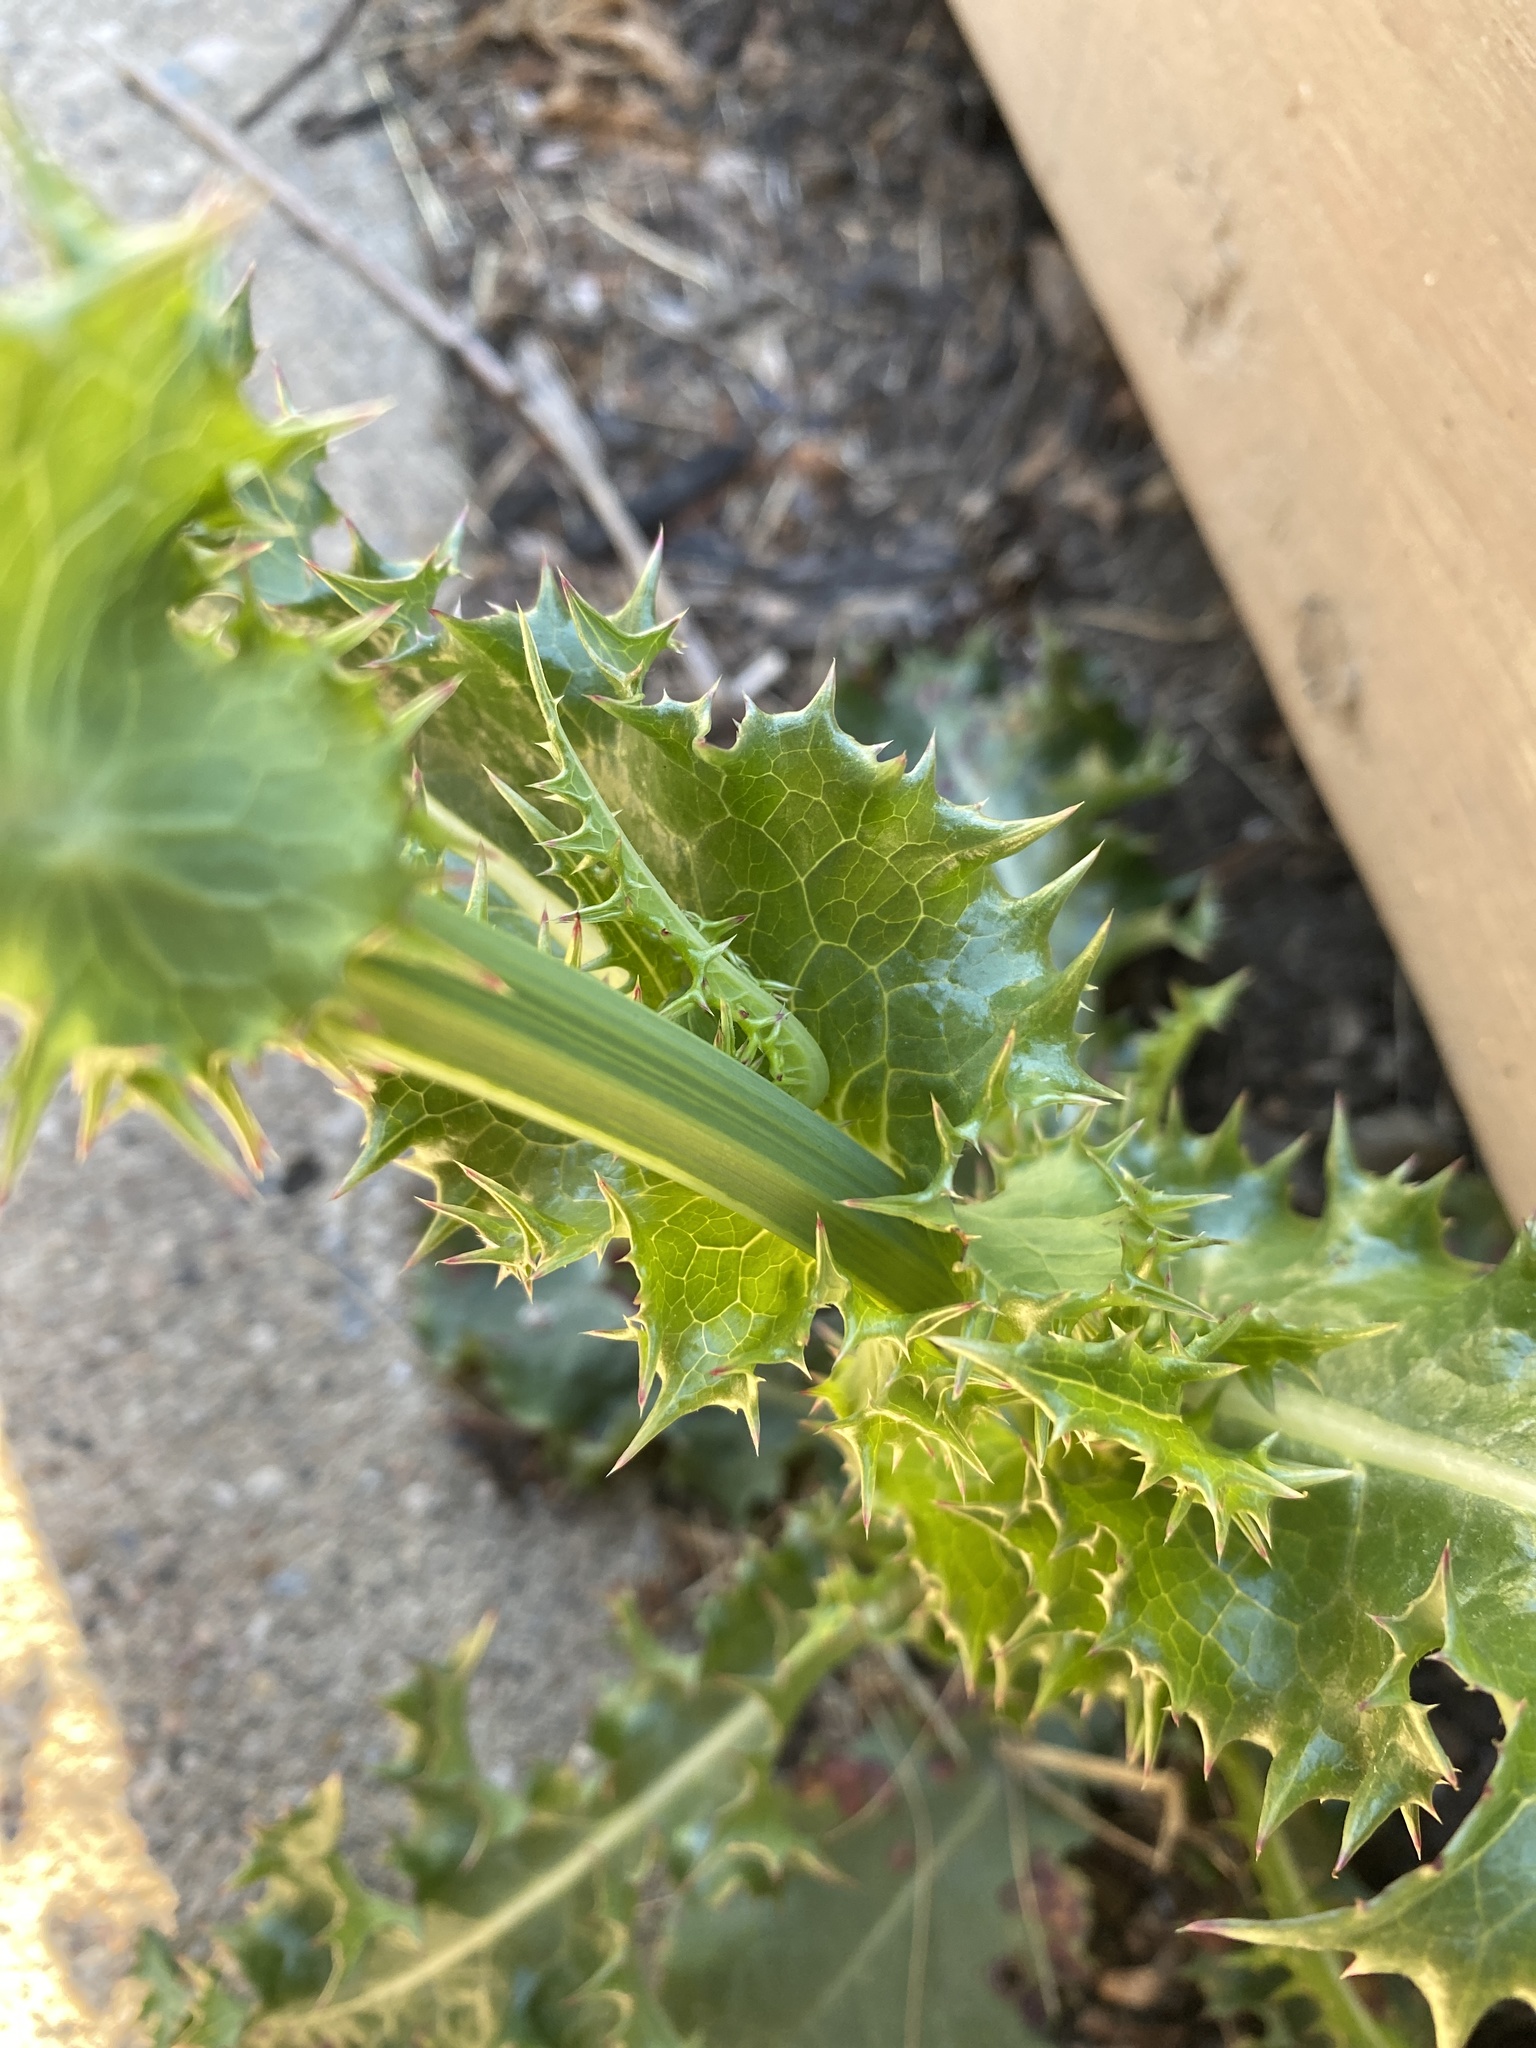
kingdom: Plantae
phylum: Tracheophyta
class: Magnoliopsida
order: Asterales
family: Asteraceae
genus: Sonchus
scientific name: Sonchus asper
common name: Prickly sow-thistle
